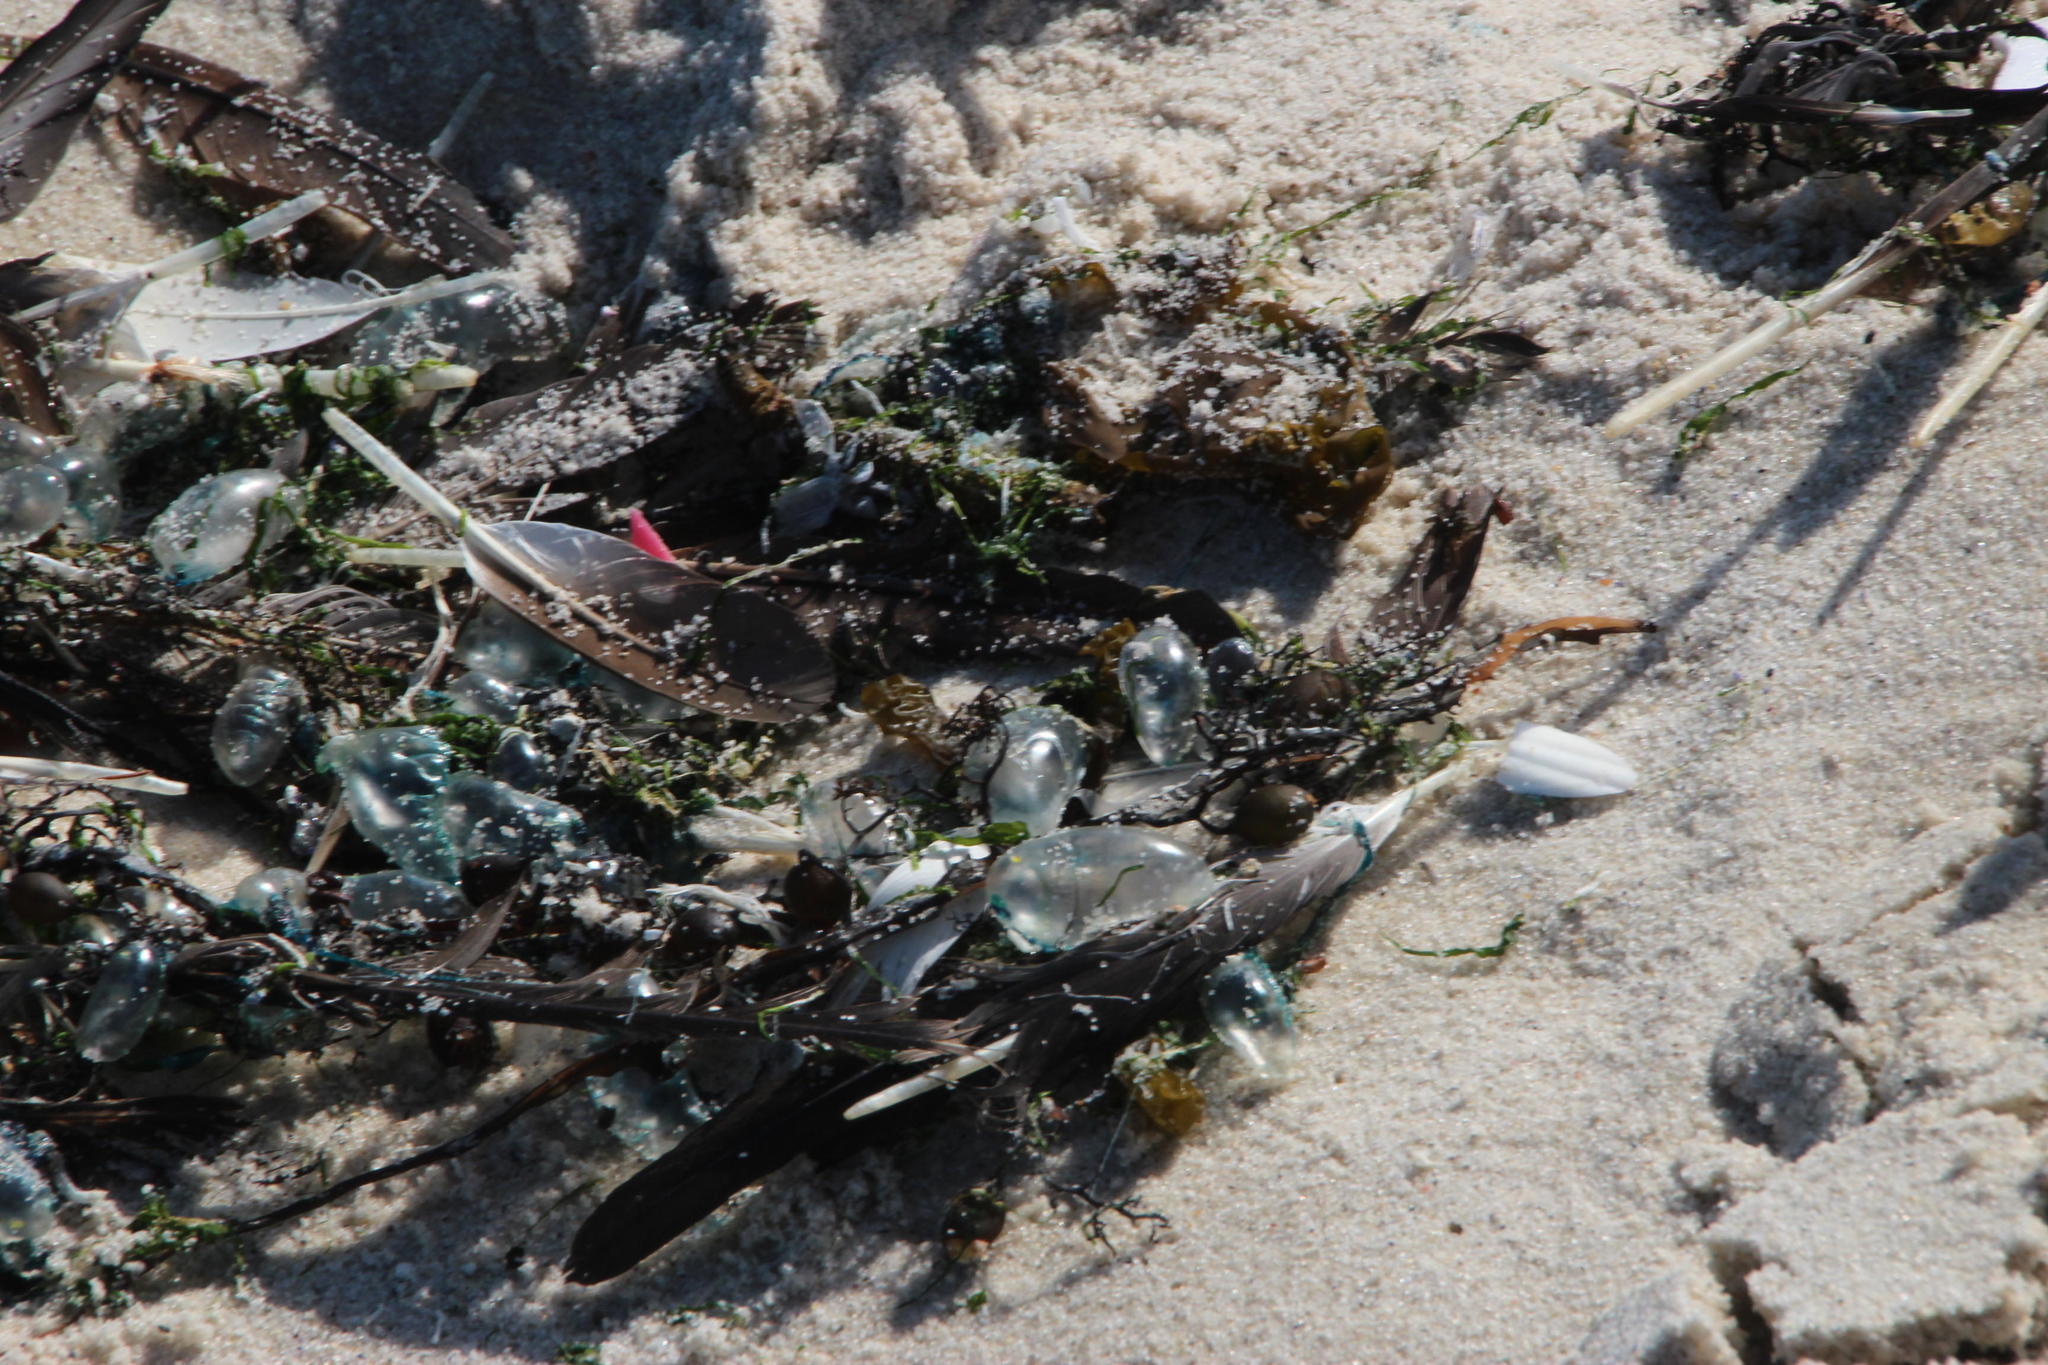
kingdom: Animalia
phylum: Cnidaria
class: Hydrozoa
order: Siphonophorae
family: Physaliidae
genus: Physalia
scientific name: Physalia physalis
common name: Portuguese man-of-war
